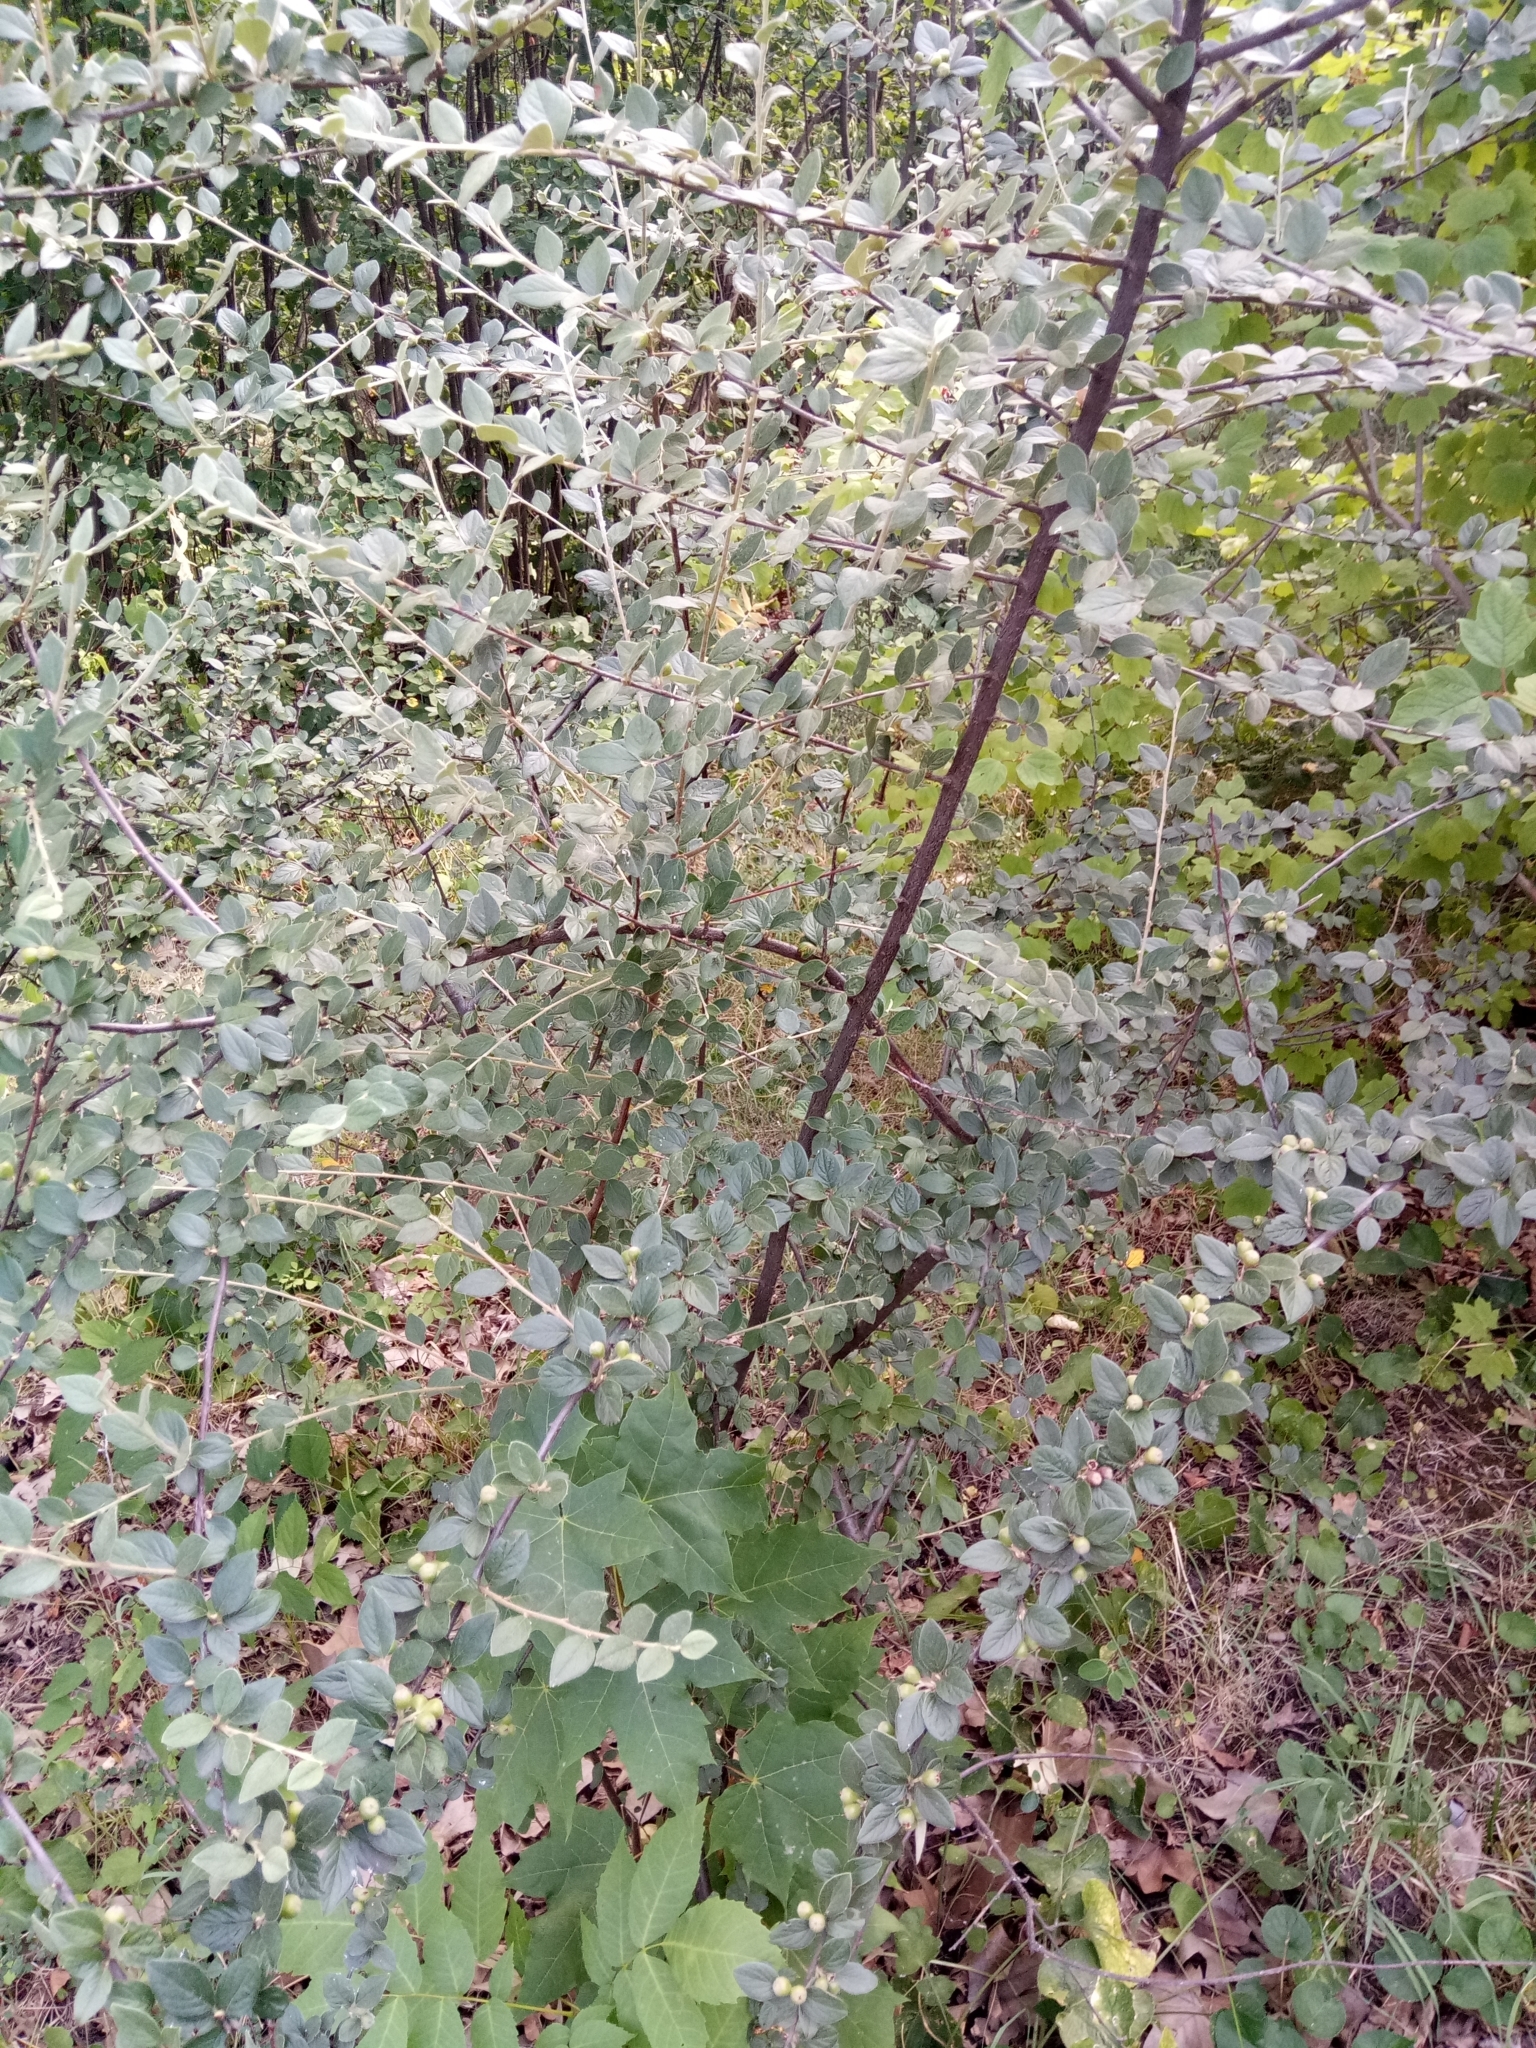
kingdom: Plantae
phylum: Tracheophyta
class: Magnoliopsida
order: Rosales
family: Rosaceae
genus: Cotoneaster
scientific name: Cotoneaster franchetii
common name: Franchet's cotoneaster
